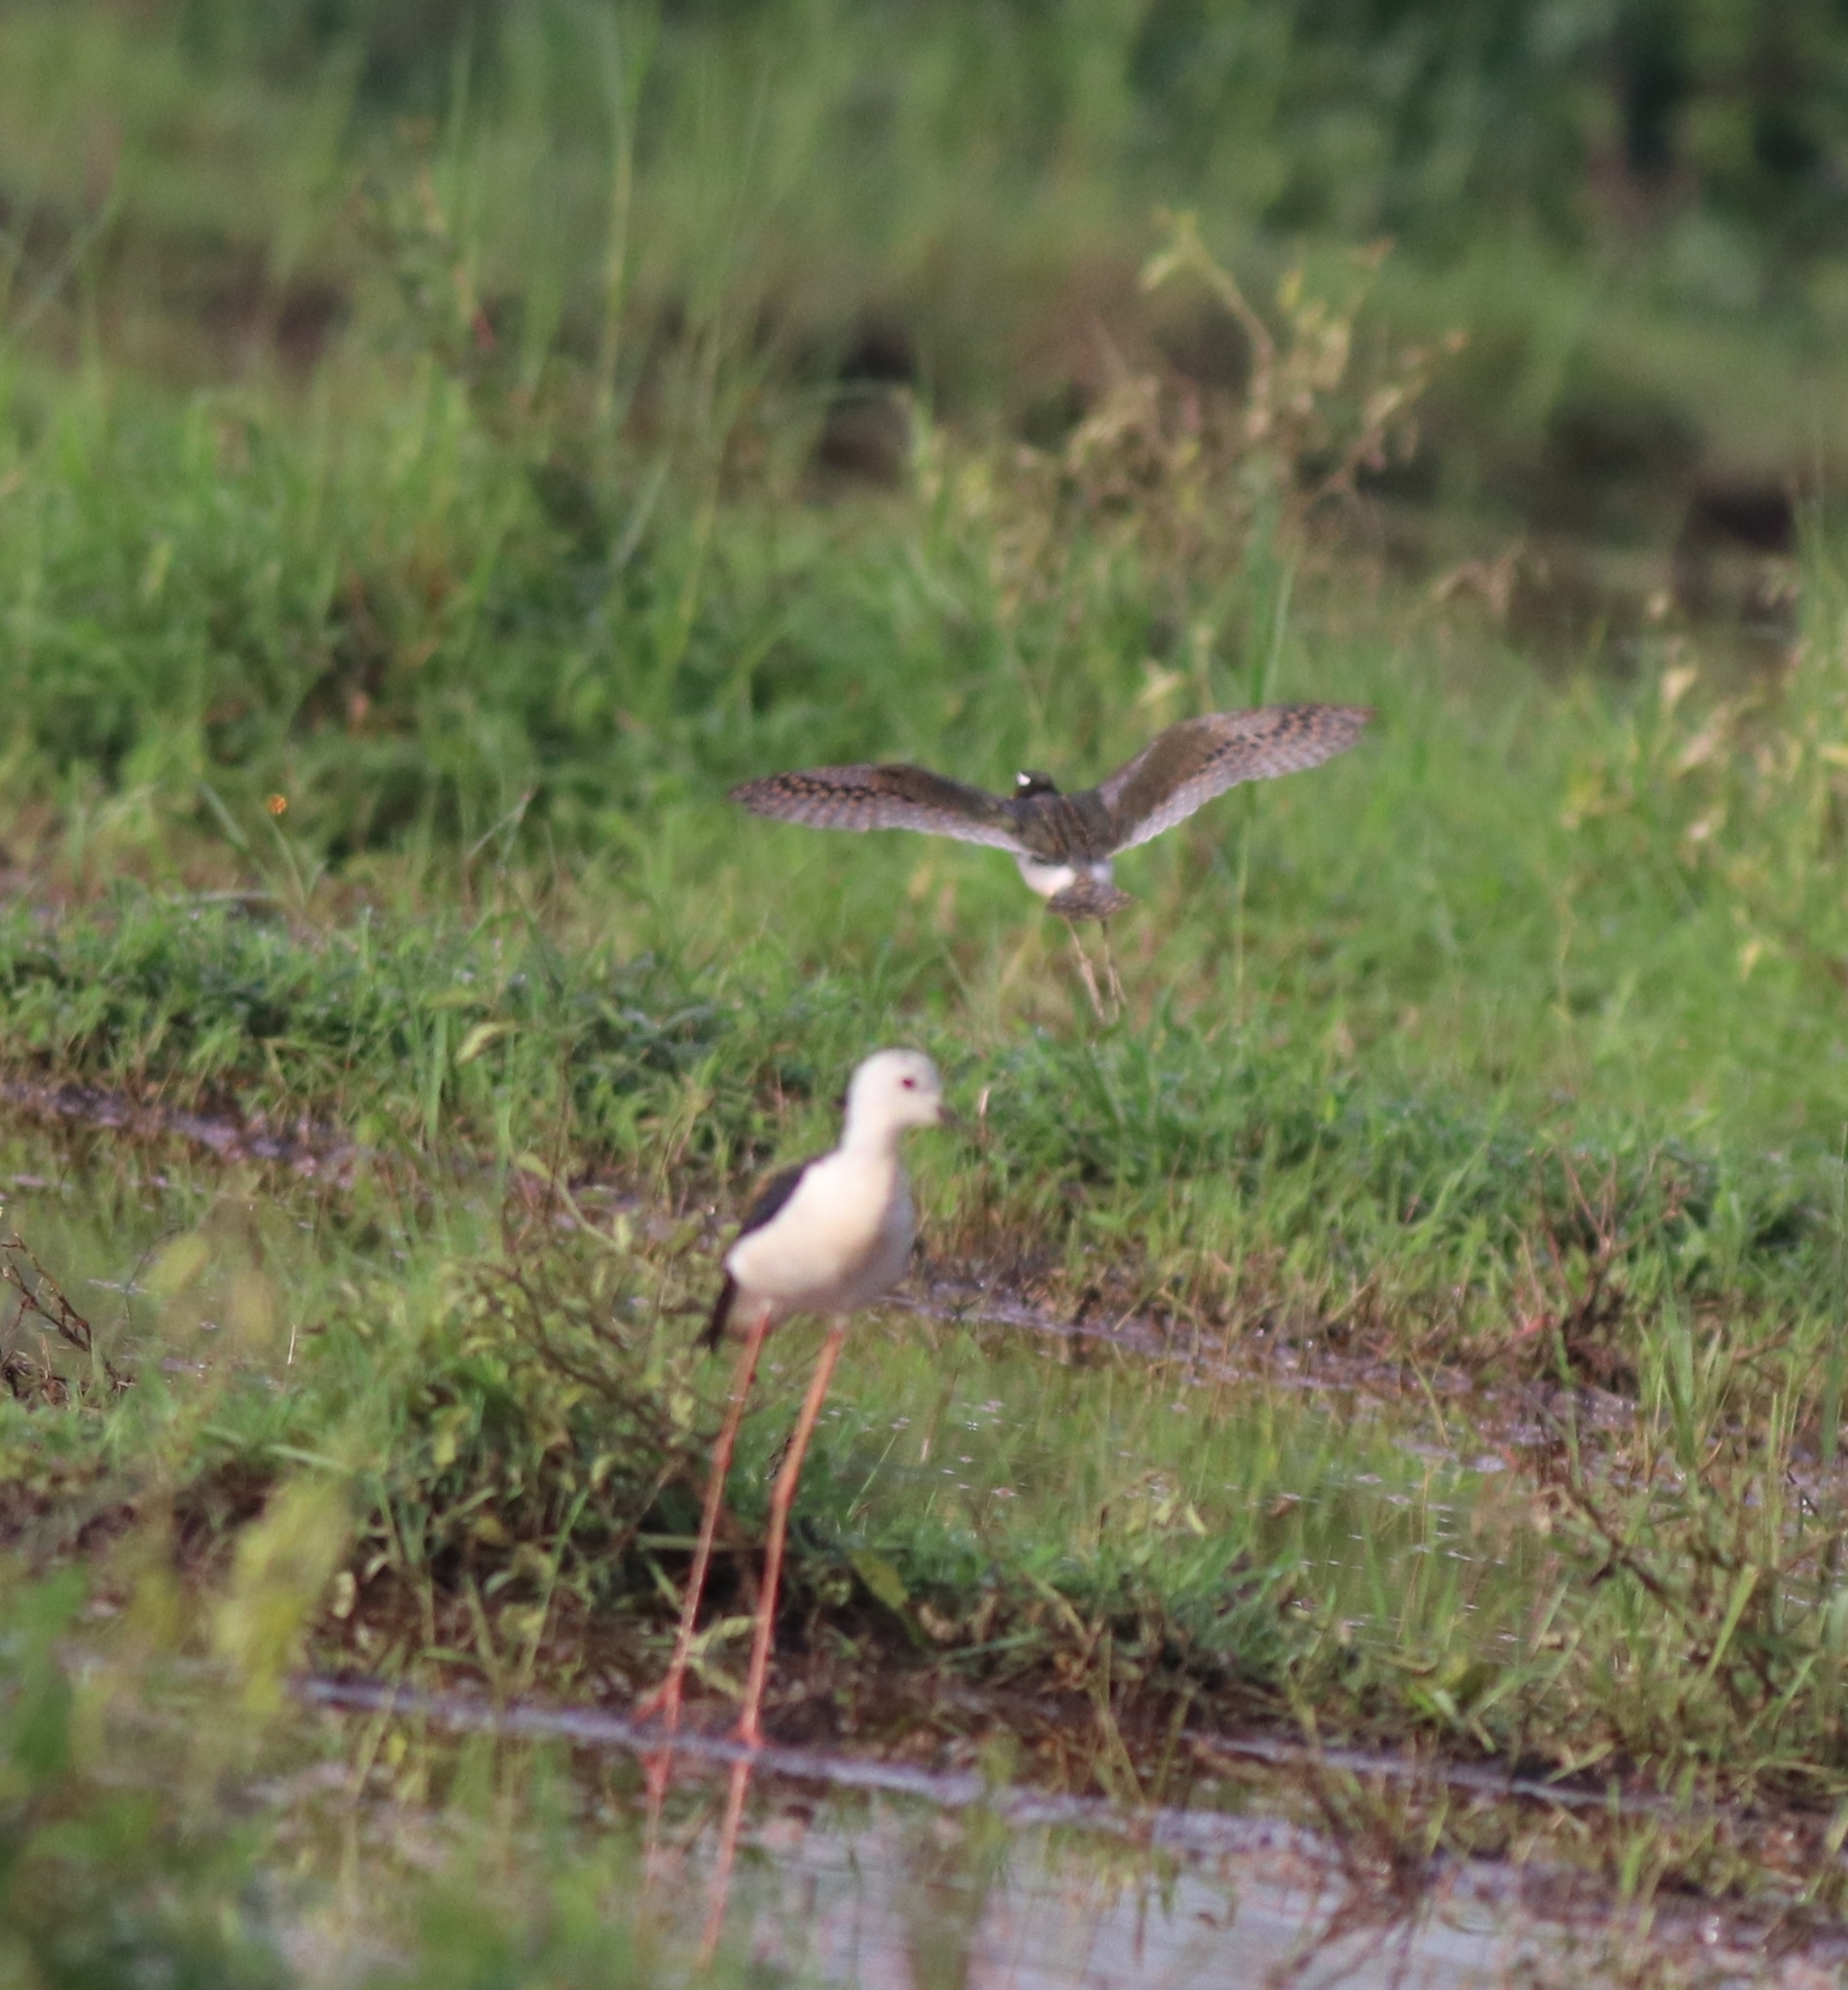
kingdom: Animalia
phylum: Chordata
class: Aves
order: Charadriiformes
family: Recurvirostridae
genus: Himantopus
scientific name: Himantopus himantopus
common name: Black-winged stilt
